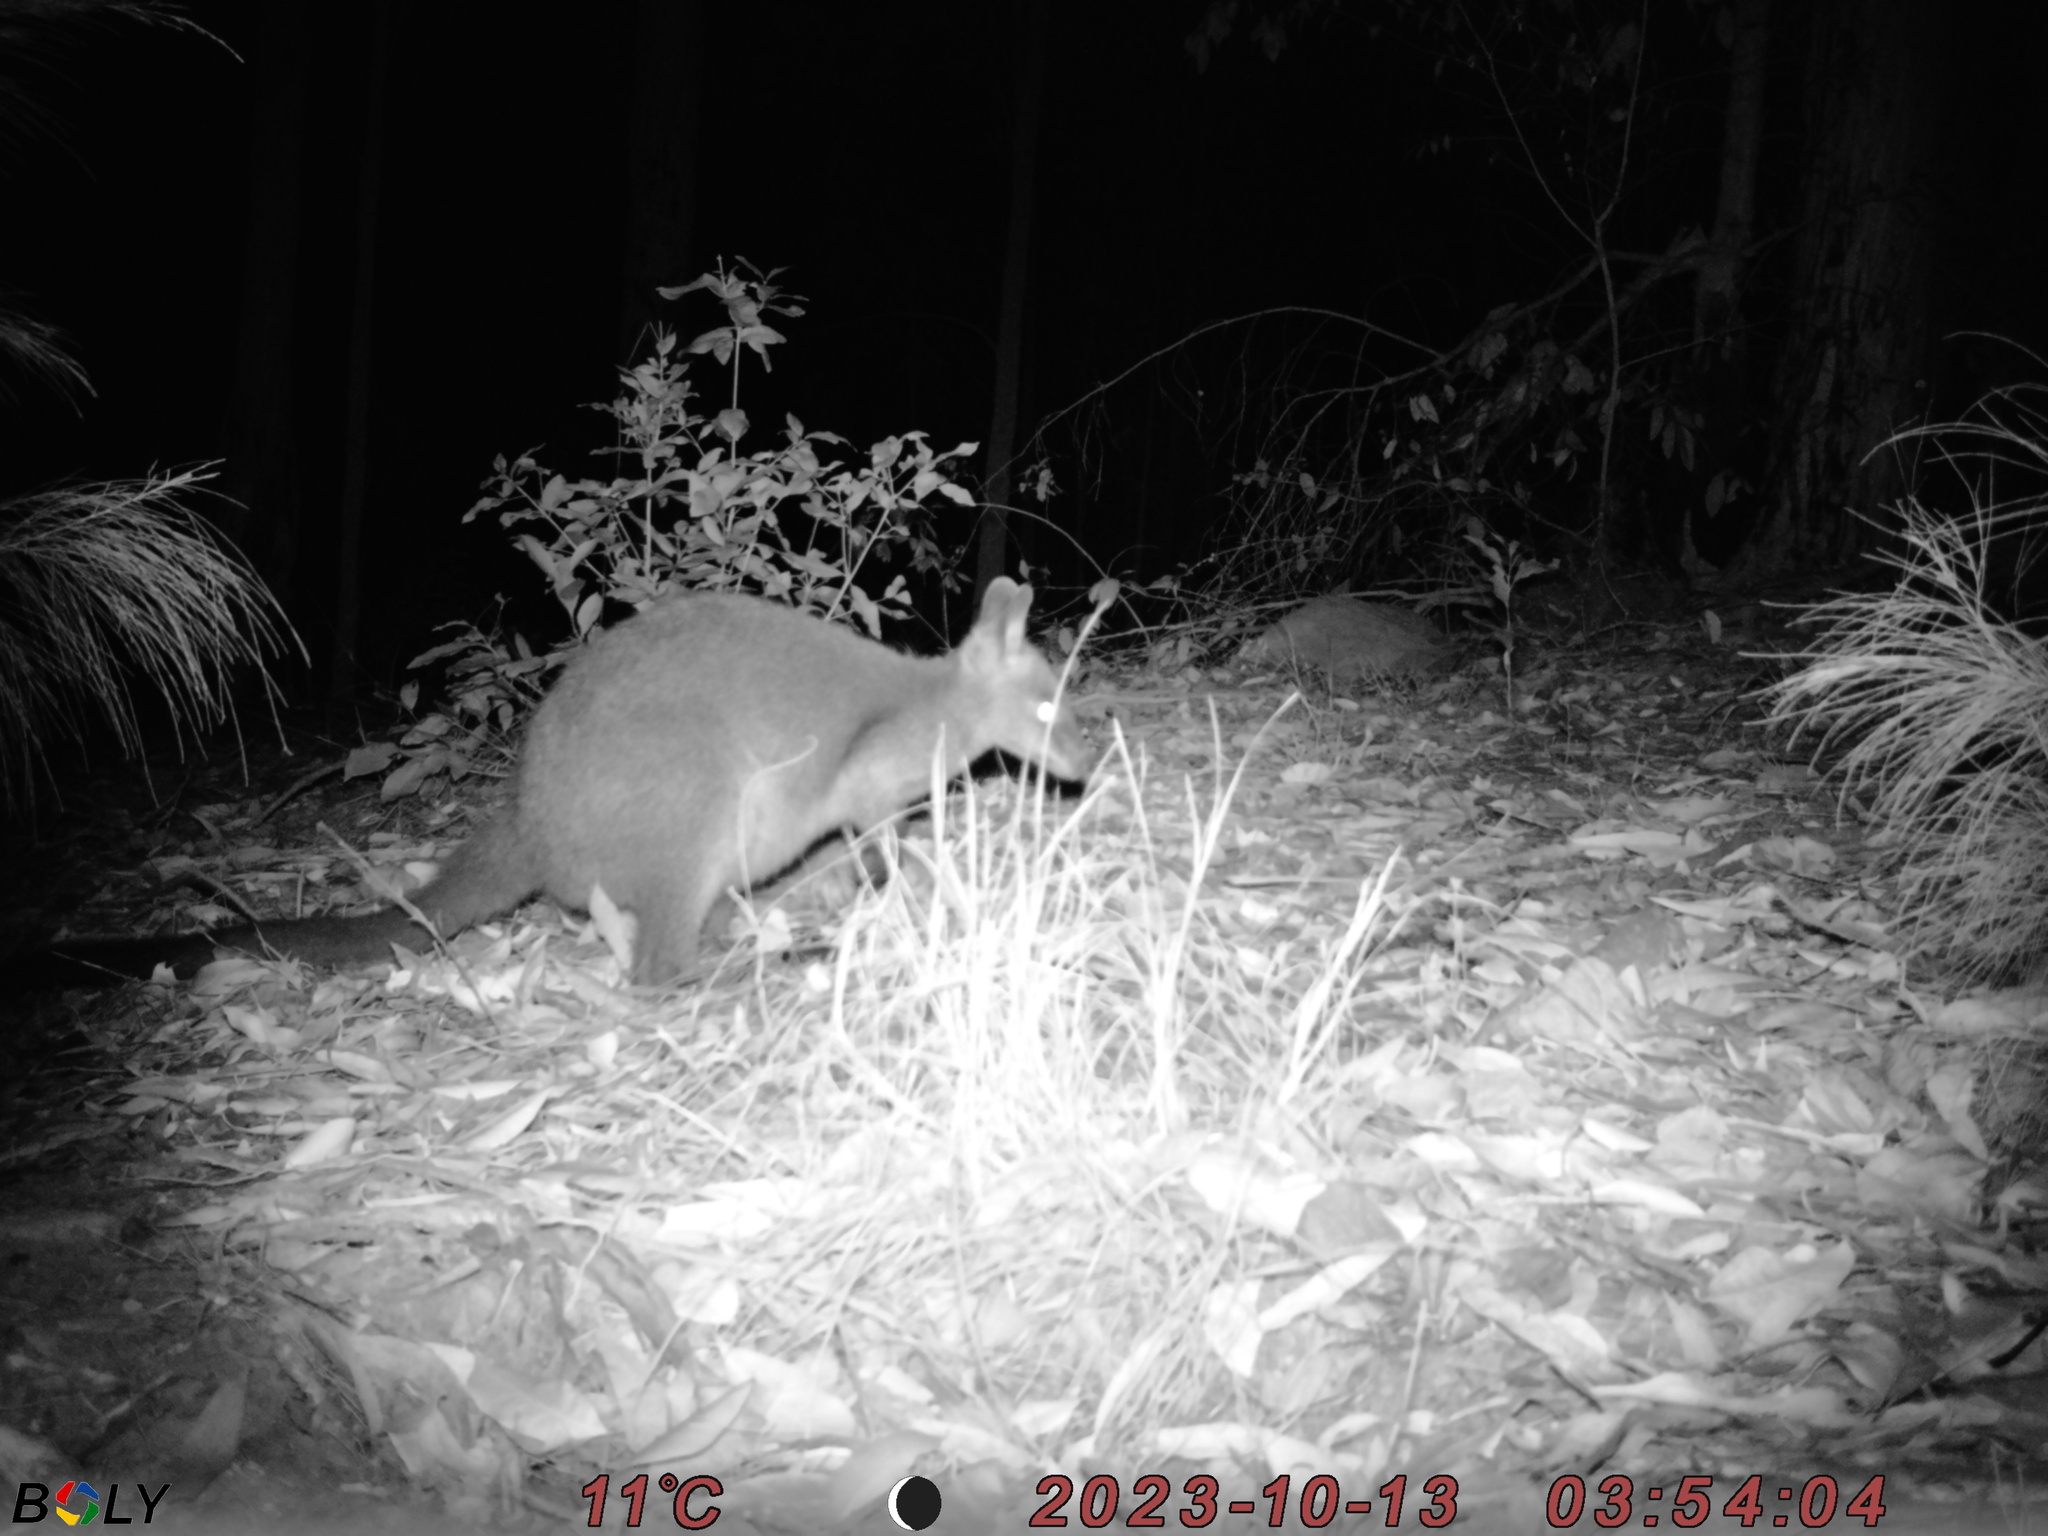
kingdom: Animalia
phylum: Chordata
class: Mammalia
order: Diprotodontia
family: Macropodidae
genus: Wallabia
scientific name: Wallabia bicolor
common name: Swamp wallaby
